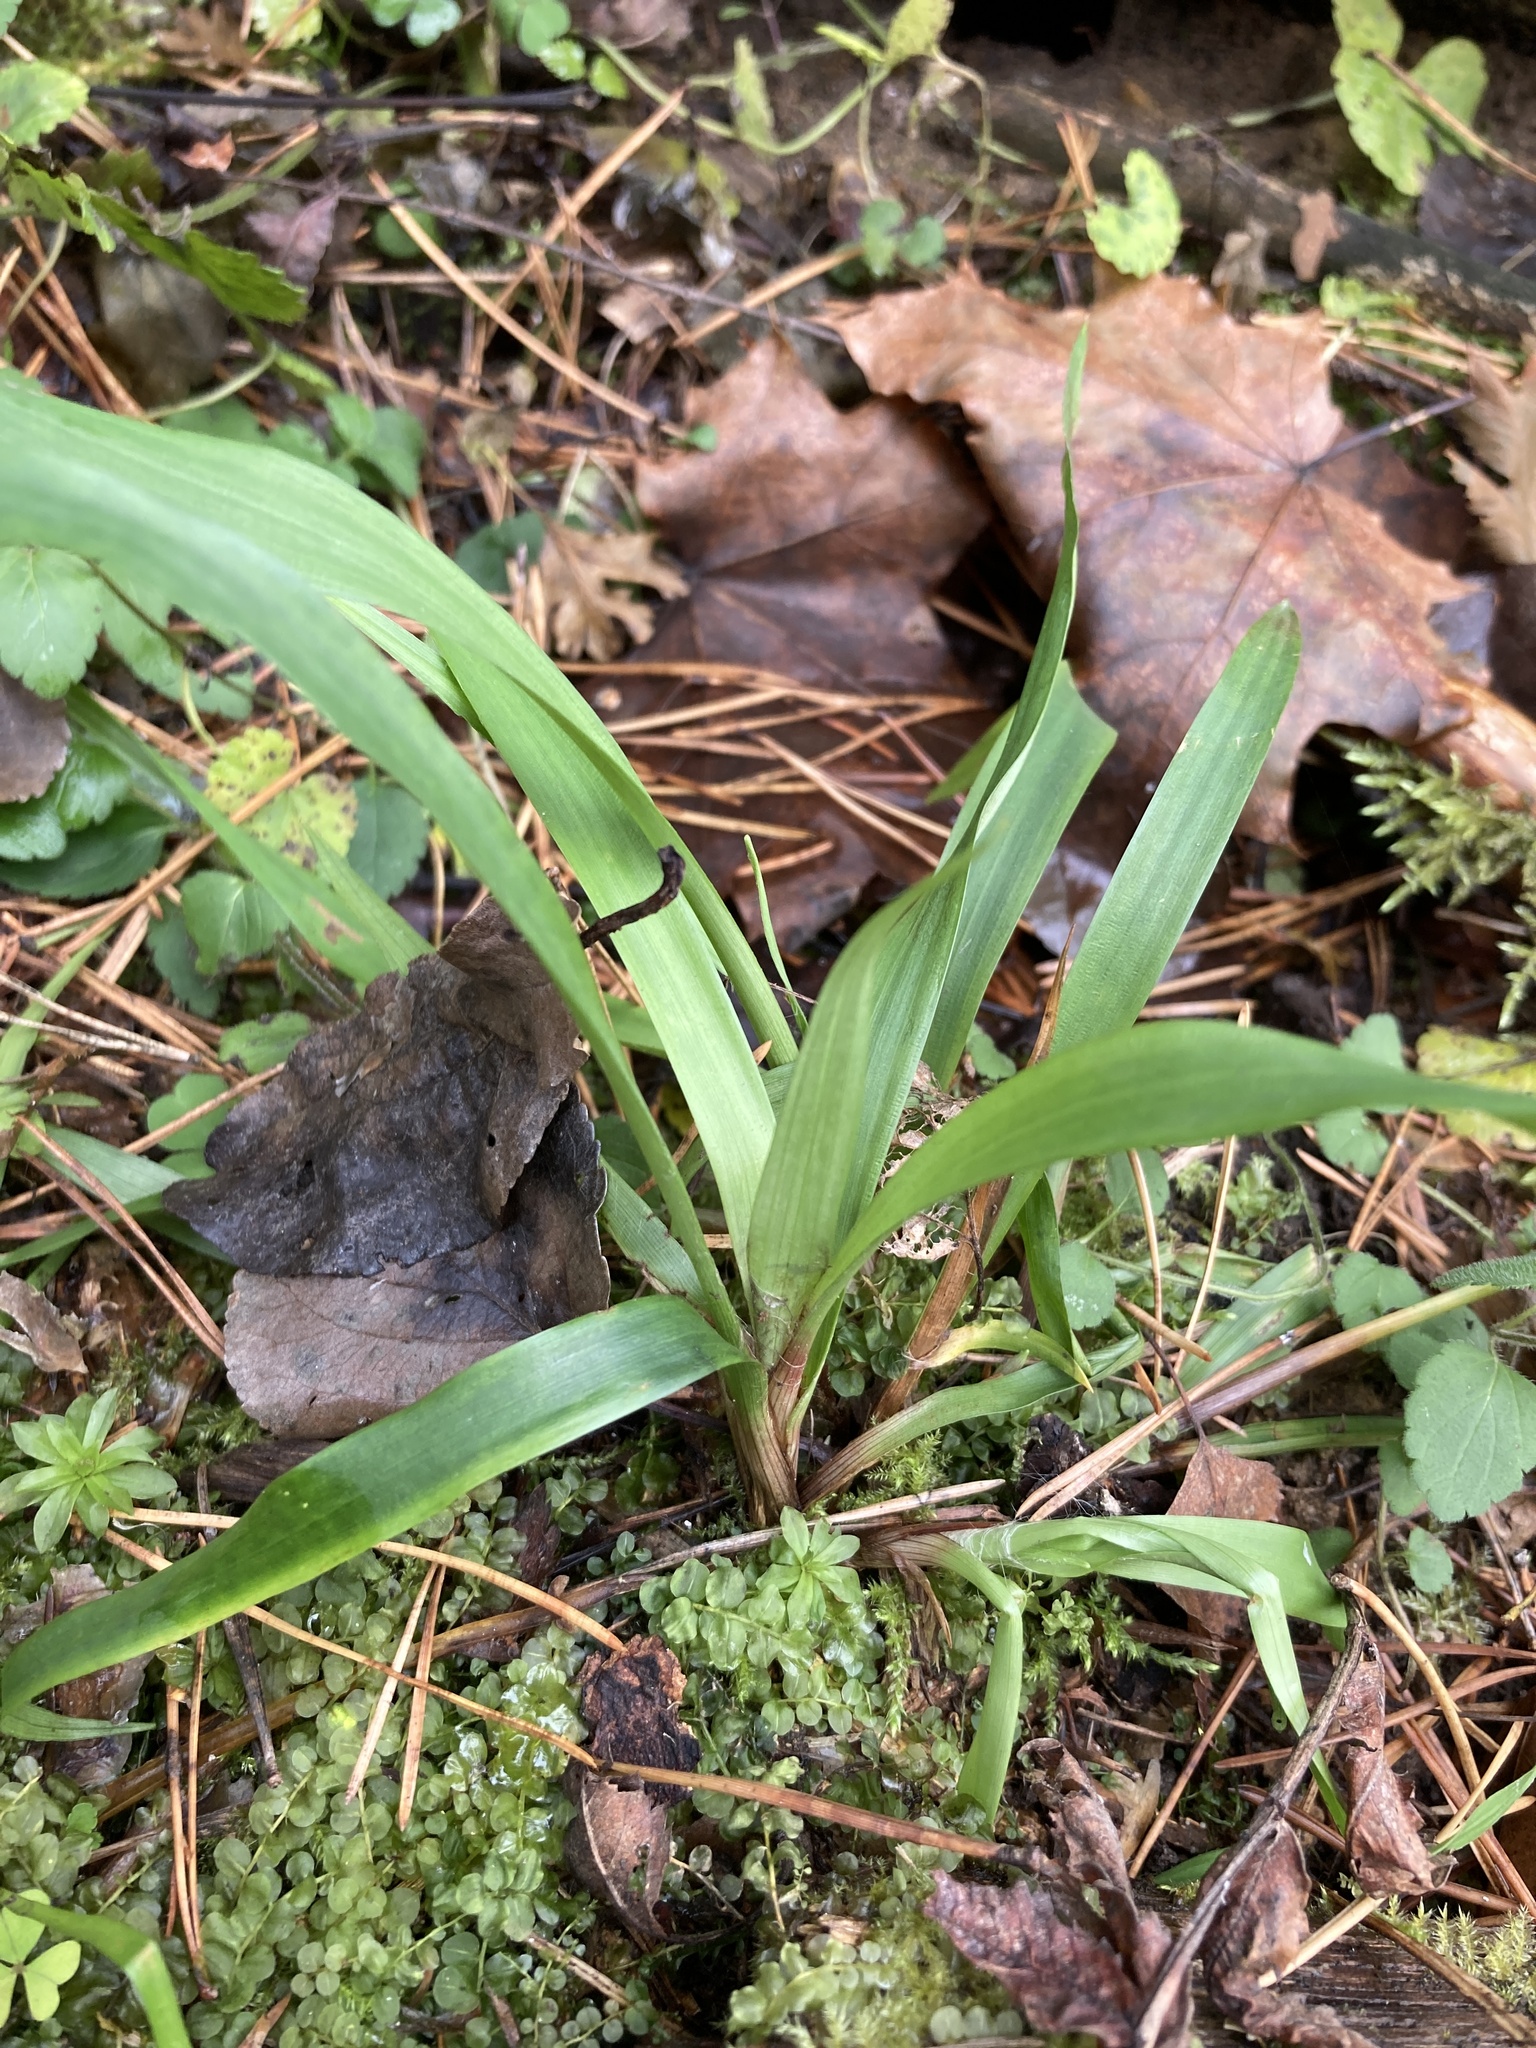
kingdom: Plantae
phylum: Tracheophyta
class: Liliopsida
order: Poales
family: Juncaceae
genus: Luzula
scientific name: Luzula pilosa
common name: Hairy wood-rush
